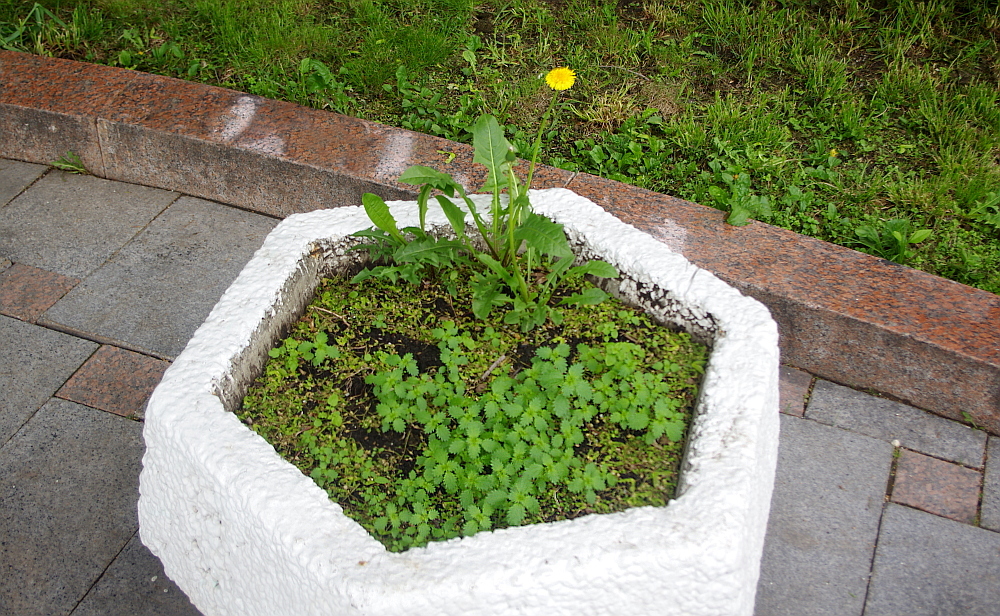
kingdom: Plantae
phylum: Tracheophyta
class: Magnoliopsida
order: Asterales
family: Asteraceae
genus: Taraxacum
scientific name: Taraxacum officinale
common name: Common dandelion
